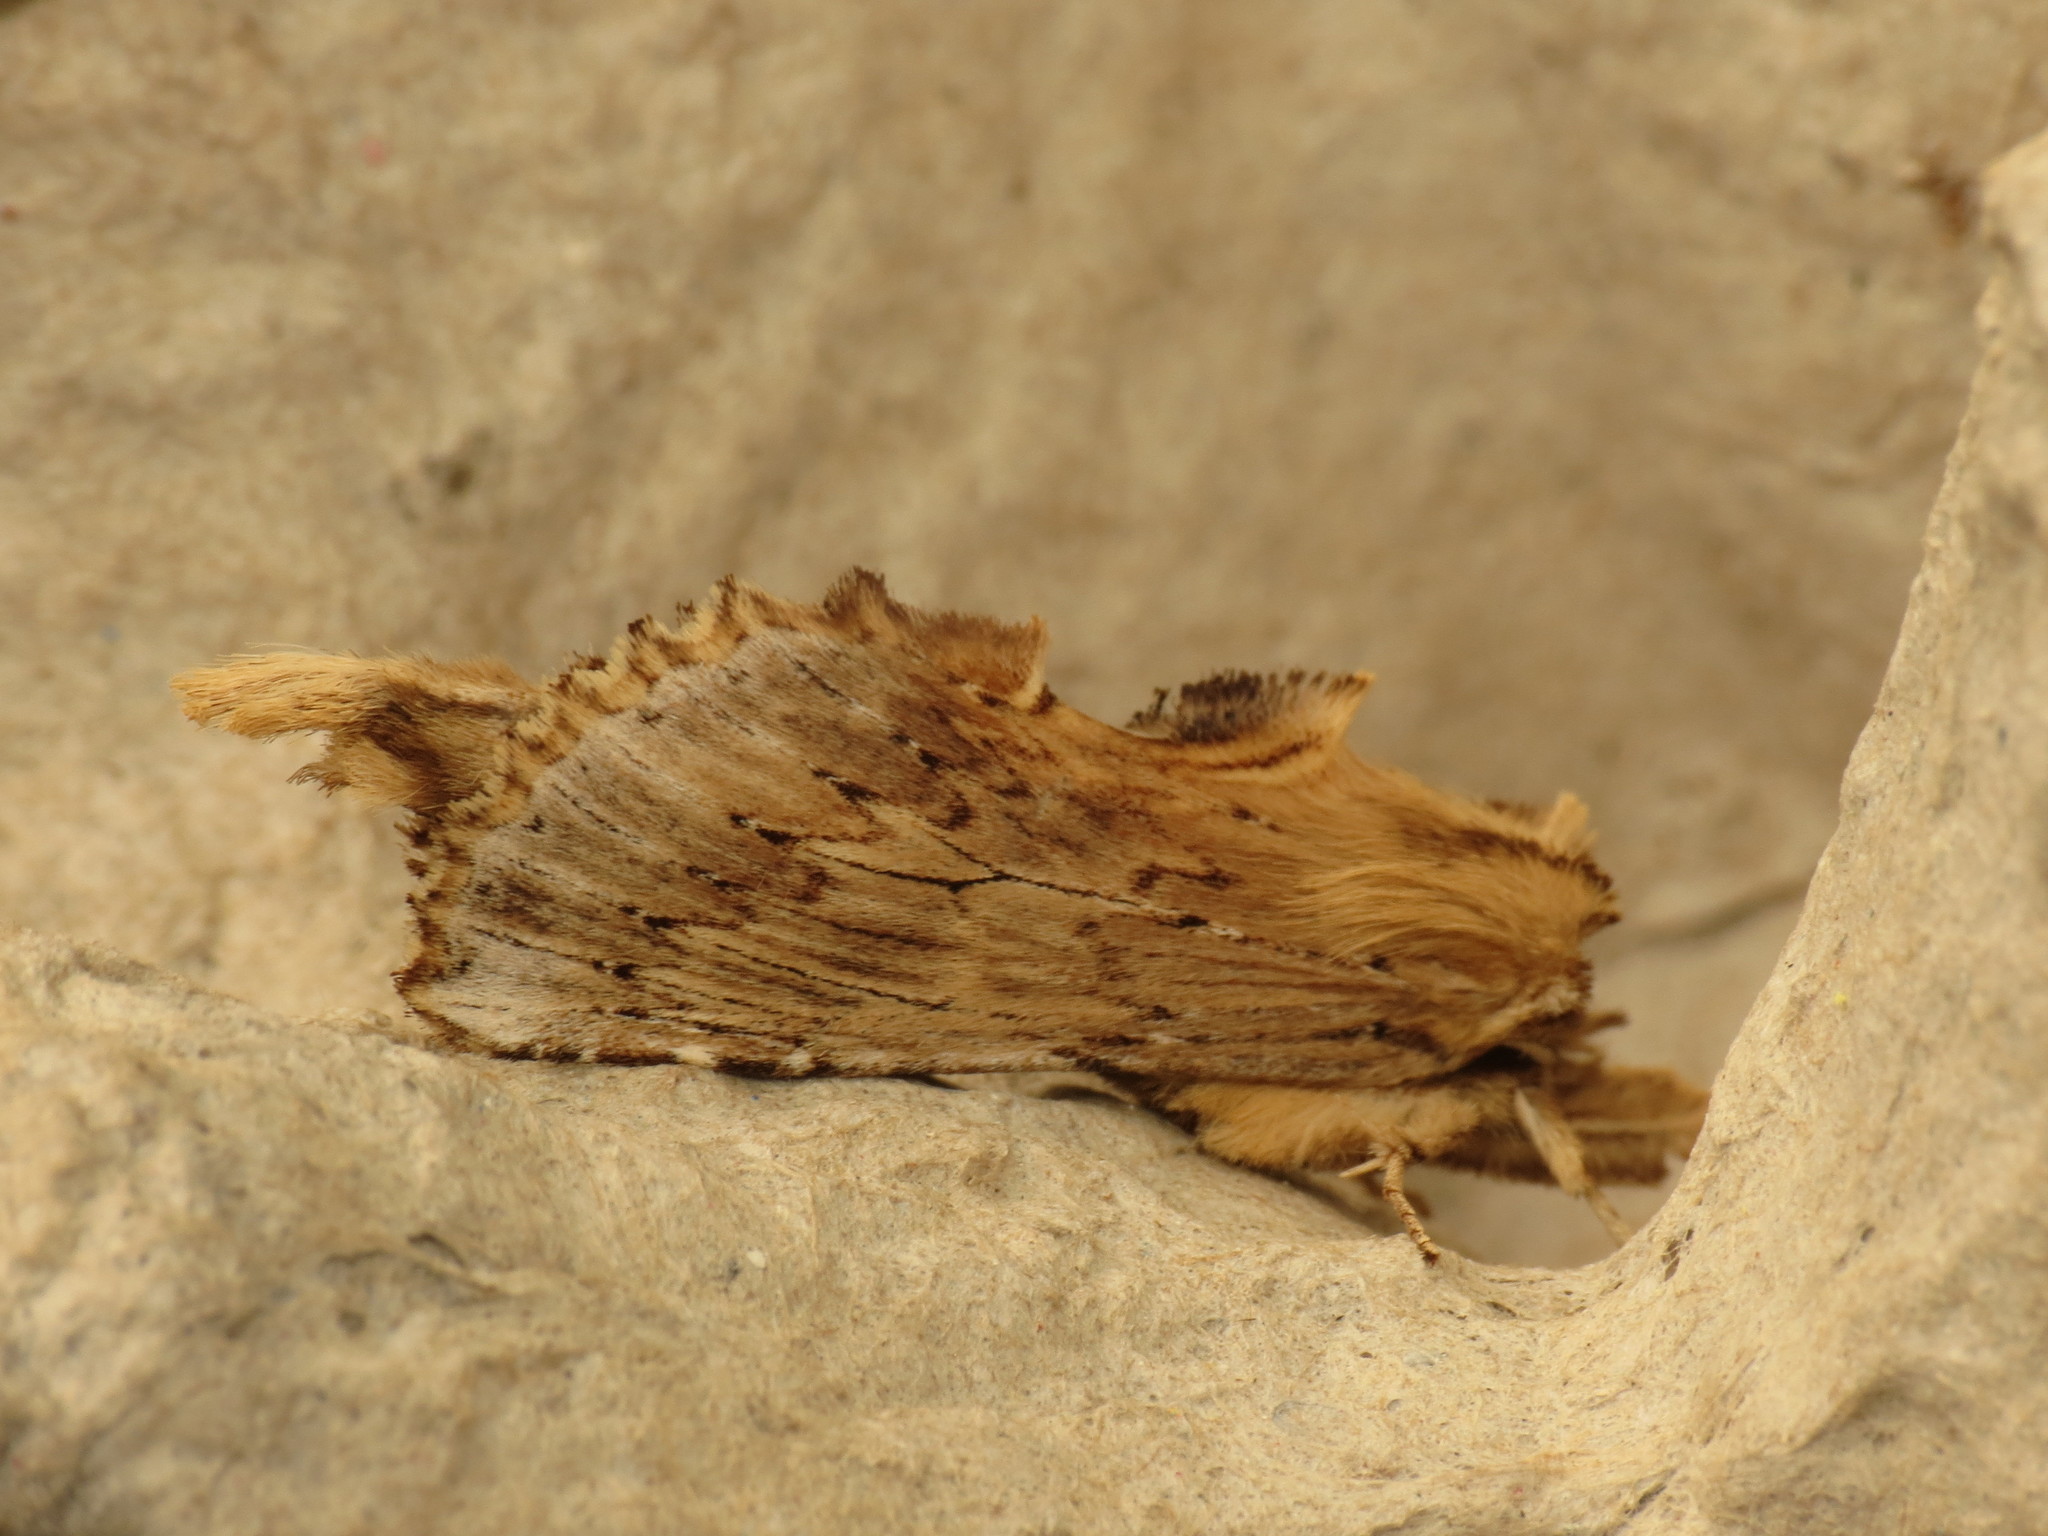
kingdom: Animalia
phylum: Arthropoda
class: Insecta
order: Lepidoptera
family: Notodontidae
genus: Pterostoma
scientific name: Pterostoma palpina
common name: Pale prominent
